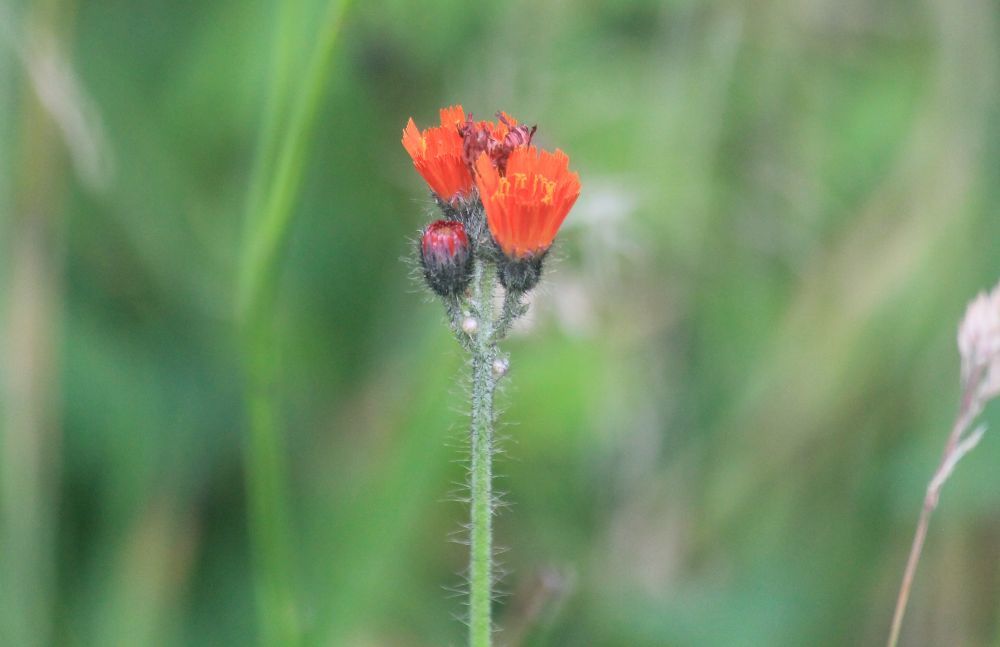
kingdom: Plantae
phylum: Tracheophyta
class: Magnoliopsida
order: Asterales
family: Asteraceae
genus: Pilosella
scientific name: Pilosella aurantiaca
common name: Fox-and-cubs
